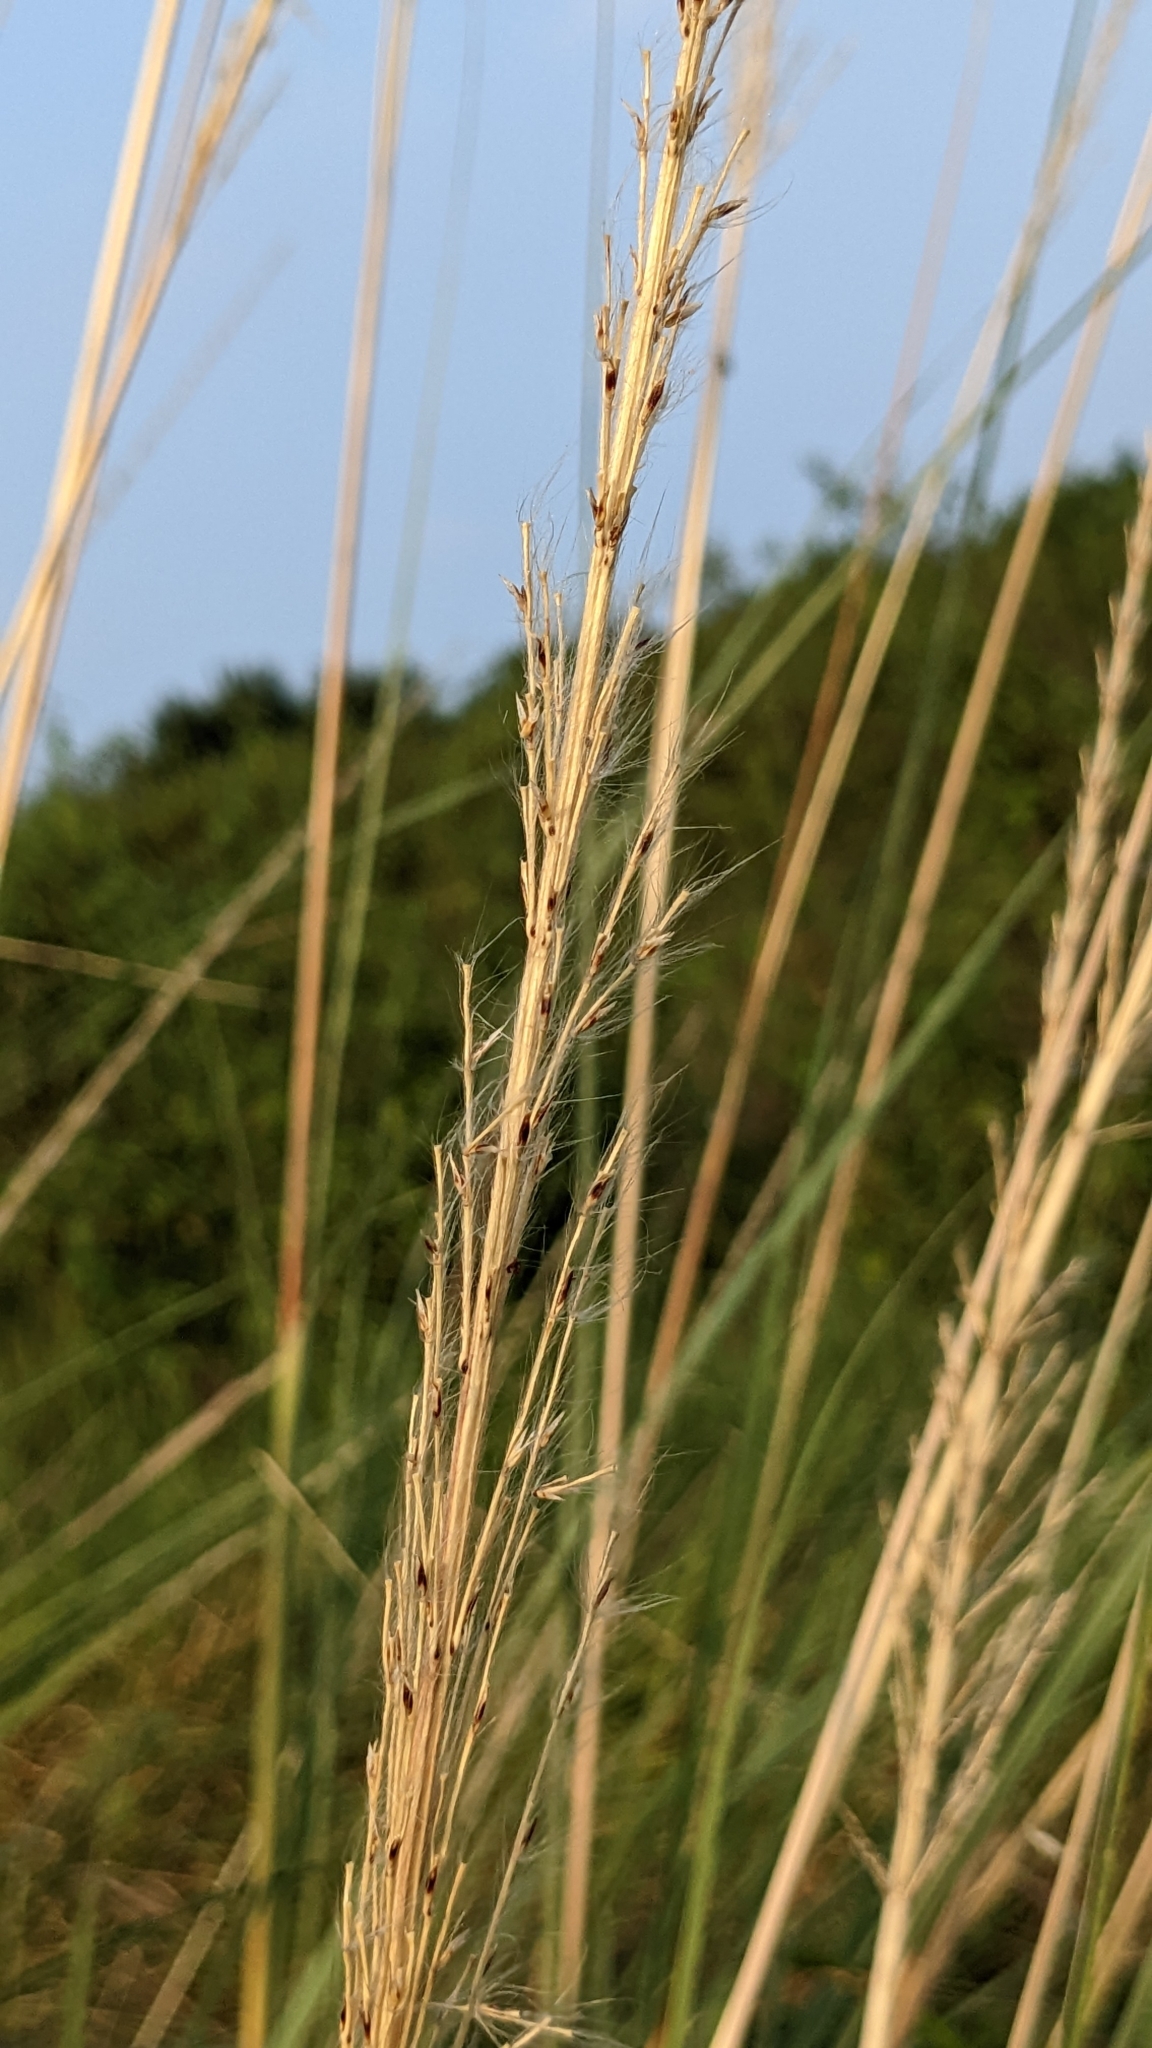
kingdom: Plantae
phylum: Tracheophyta
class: Liliopsida
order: Poales
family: Poaceae
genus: Saccharum
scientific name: Saccharum spontaneum
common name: Wild sugarcane
